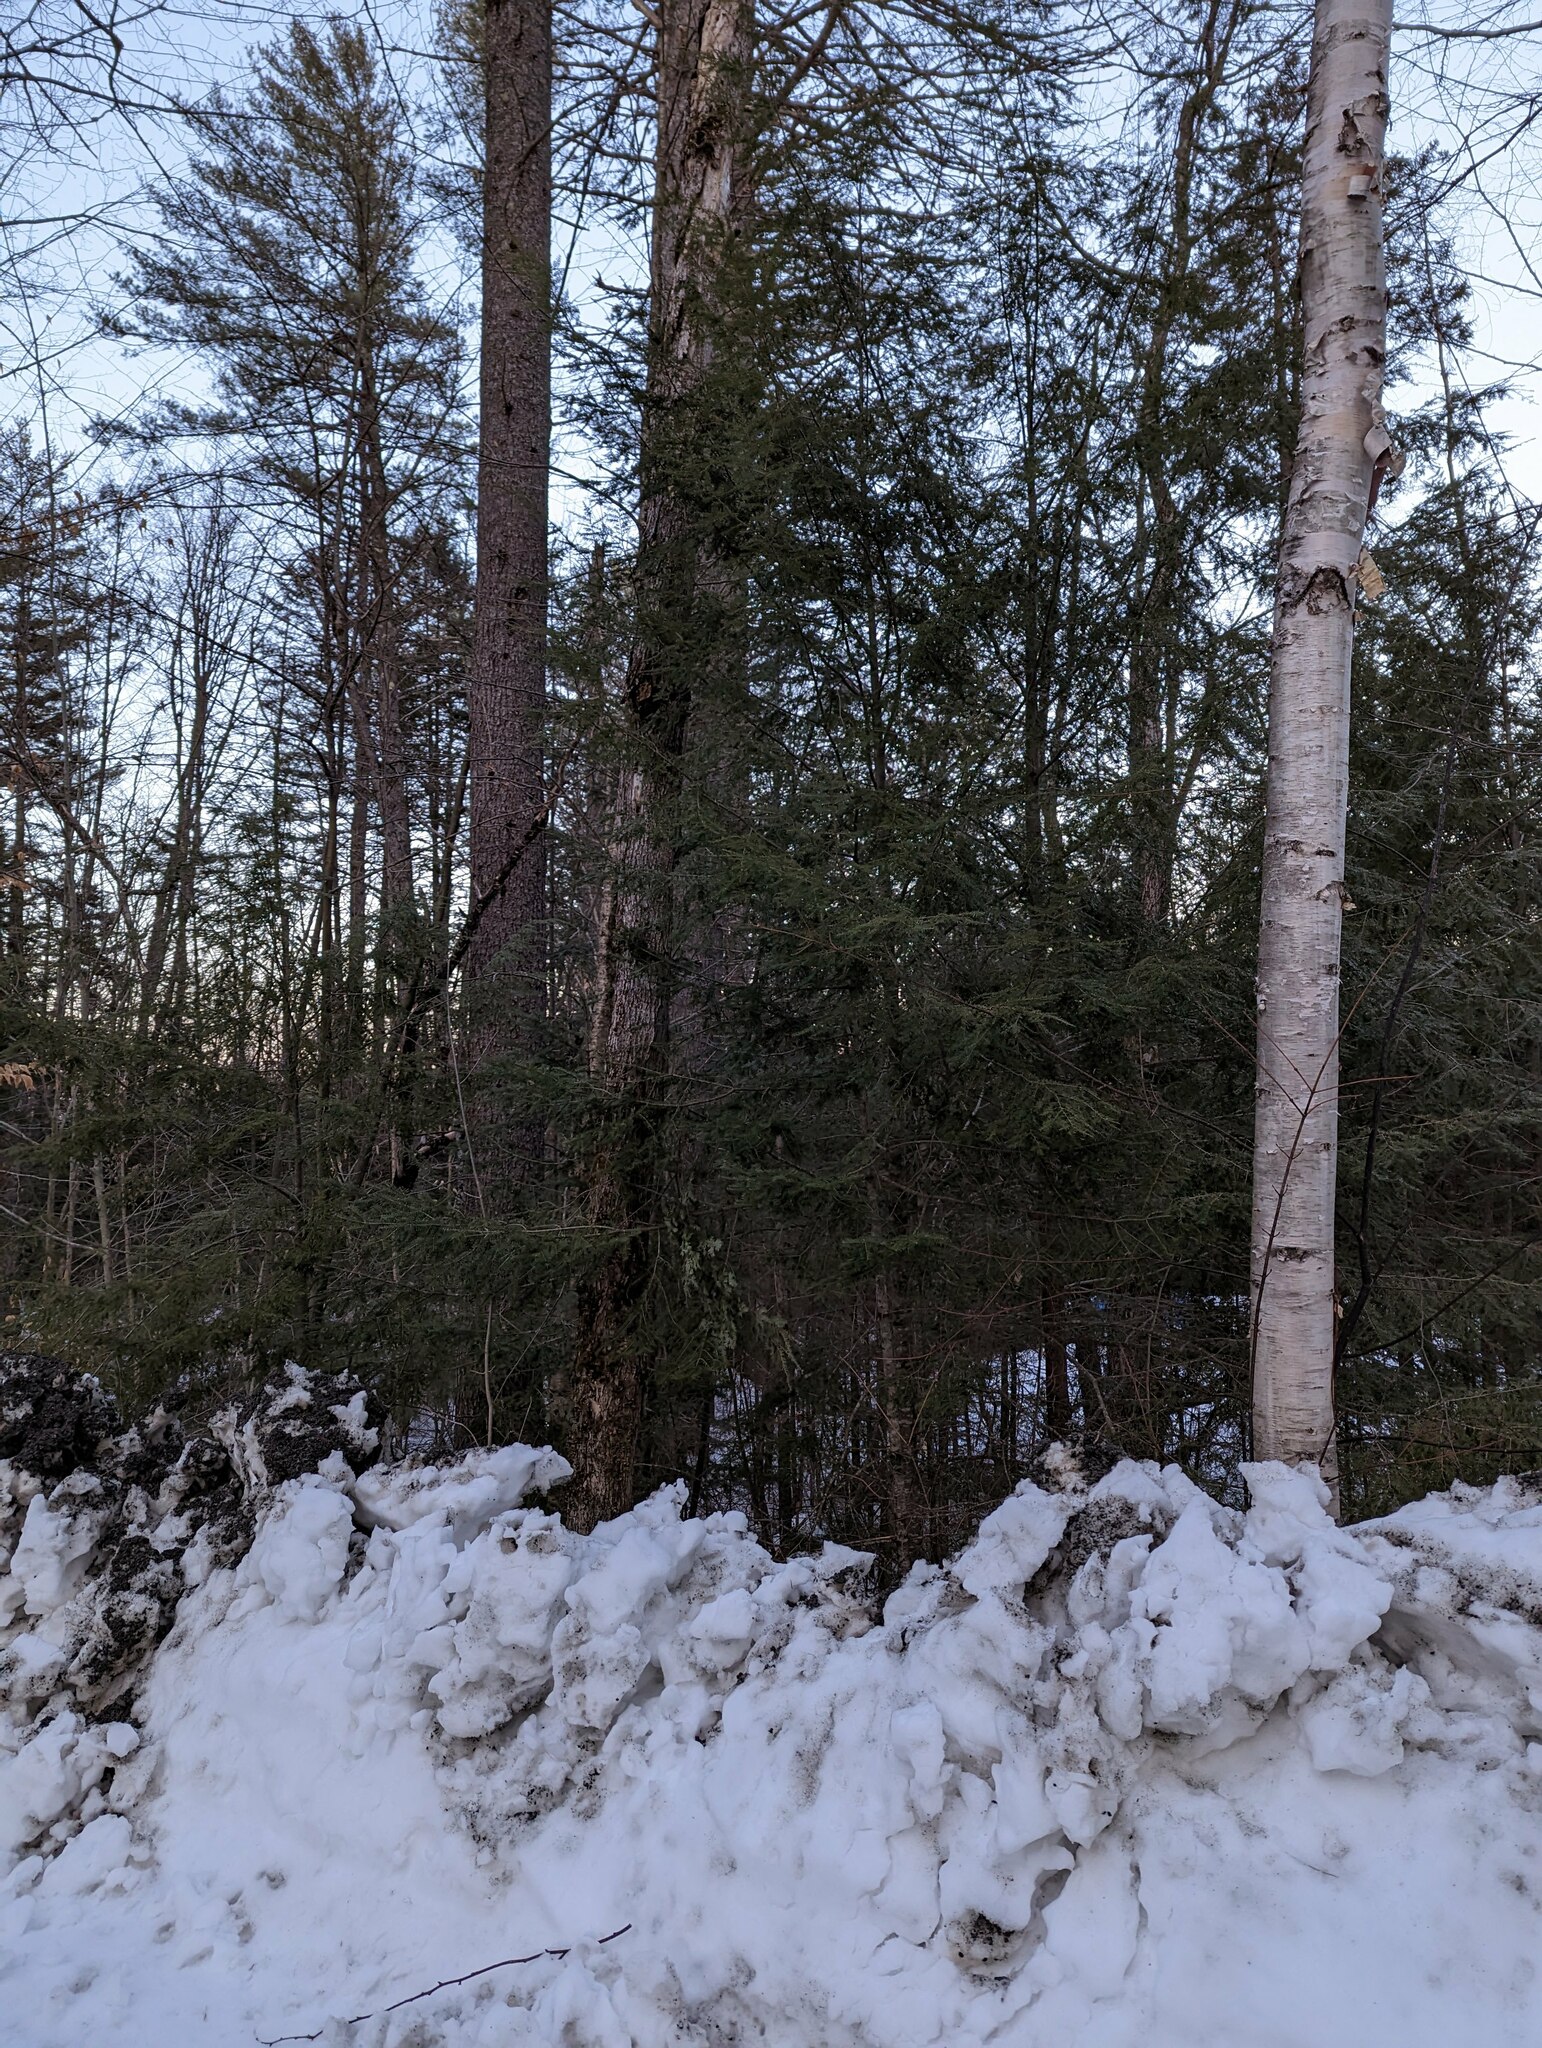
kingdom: Plantae
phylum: Tracheophyta
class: Pinopsida
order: Pinales
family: Pinaceae
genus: Tsuga
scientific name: Tsuga canadensis
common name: Eastern hemlock
